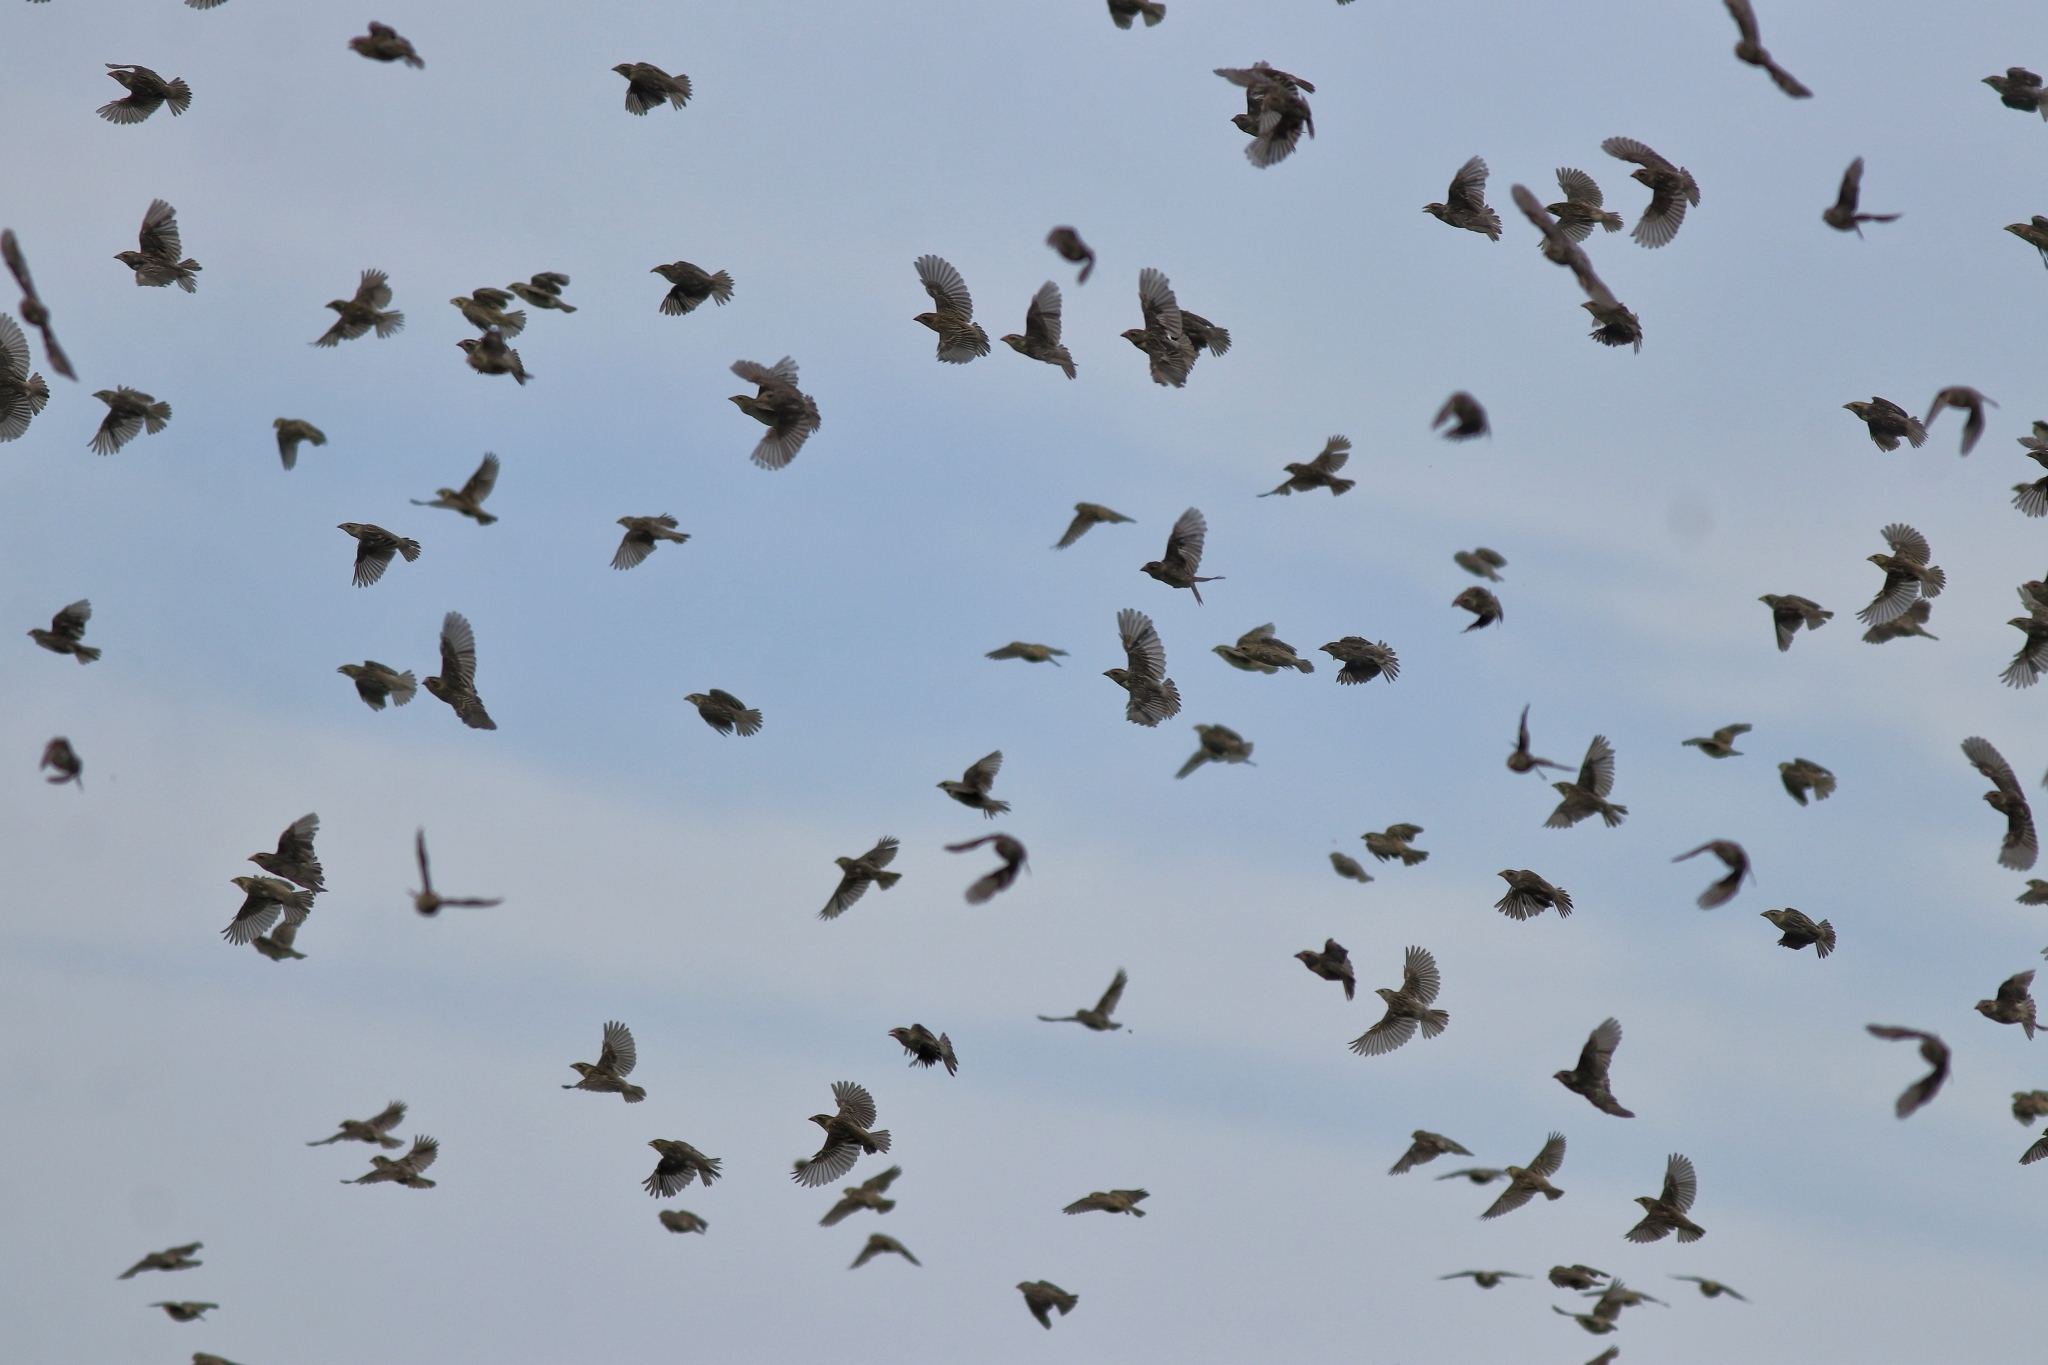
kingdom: Animalia
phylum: Chordata
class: Aves
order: Passeriformes
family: Ploceidae
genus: Ploceus
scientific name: Ploceus philippinus
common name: Baya weaver
